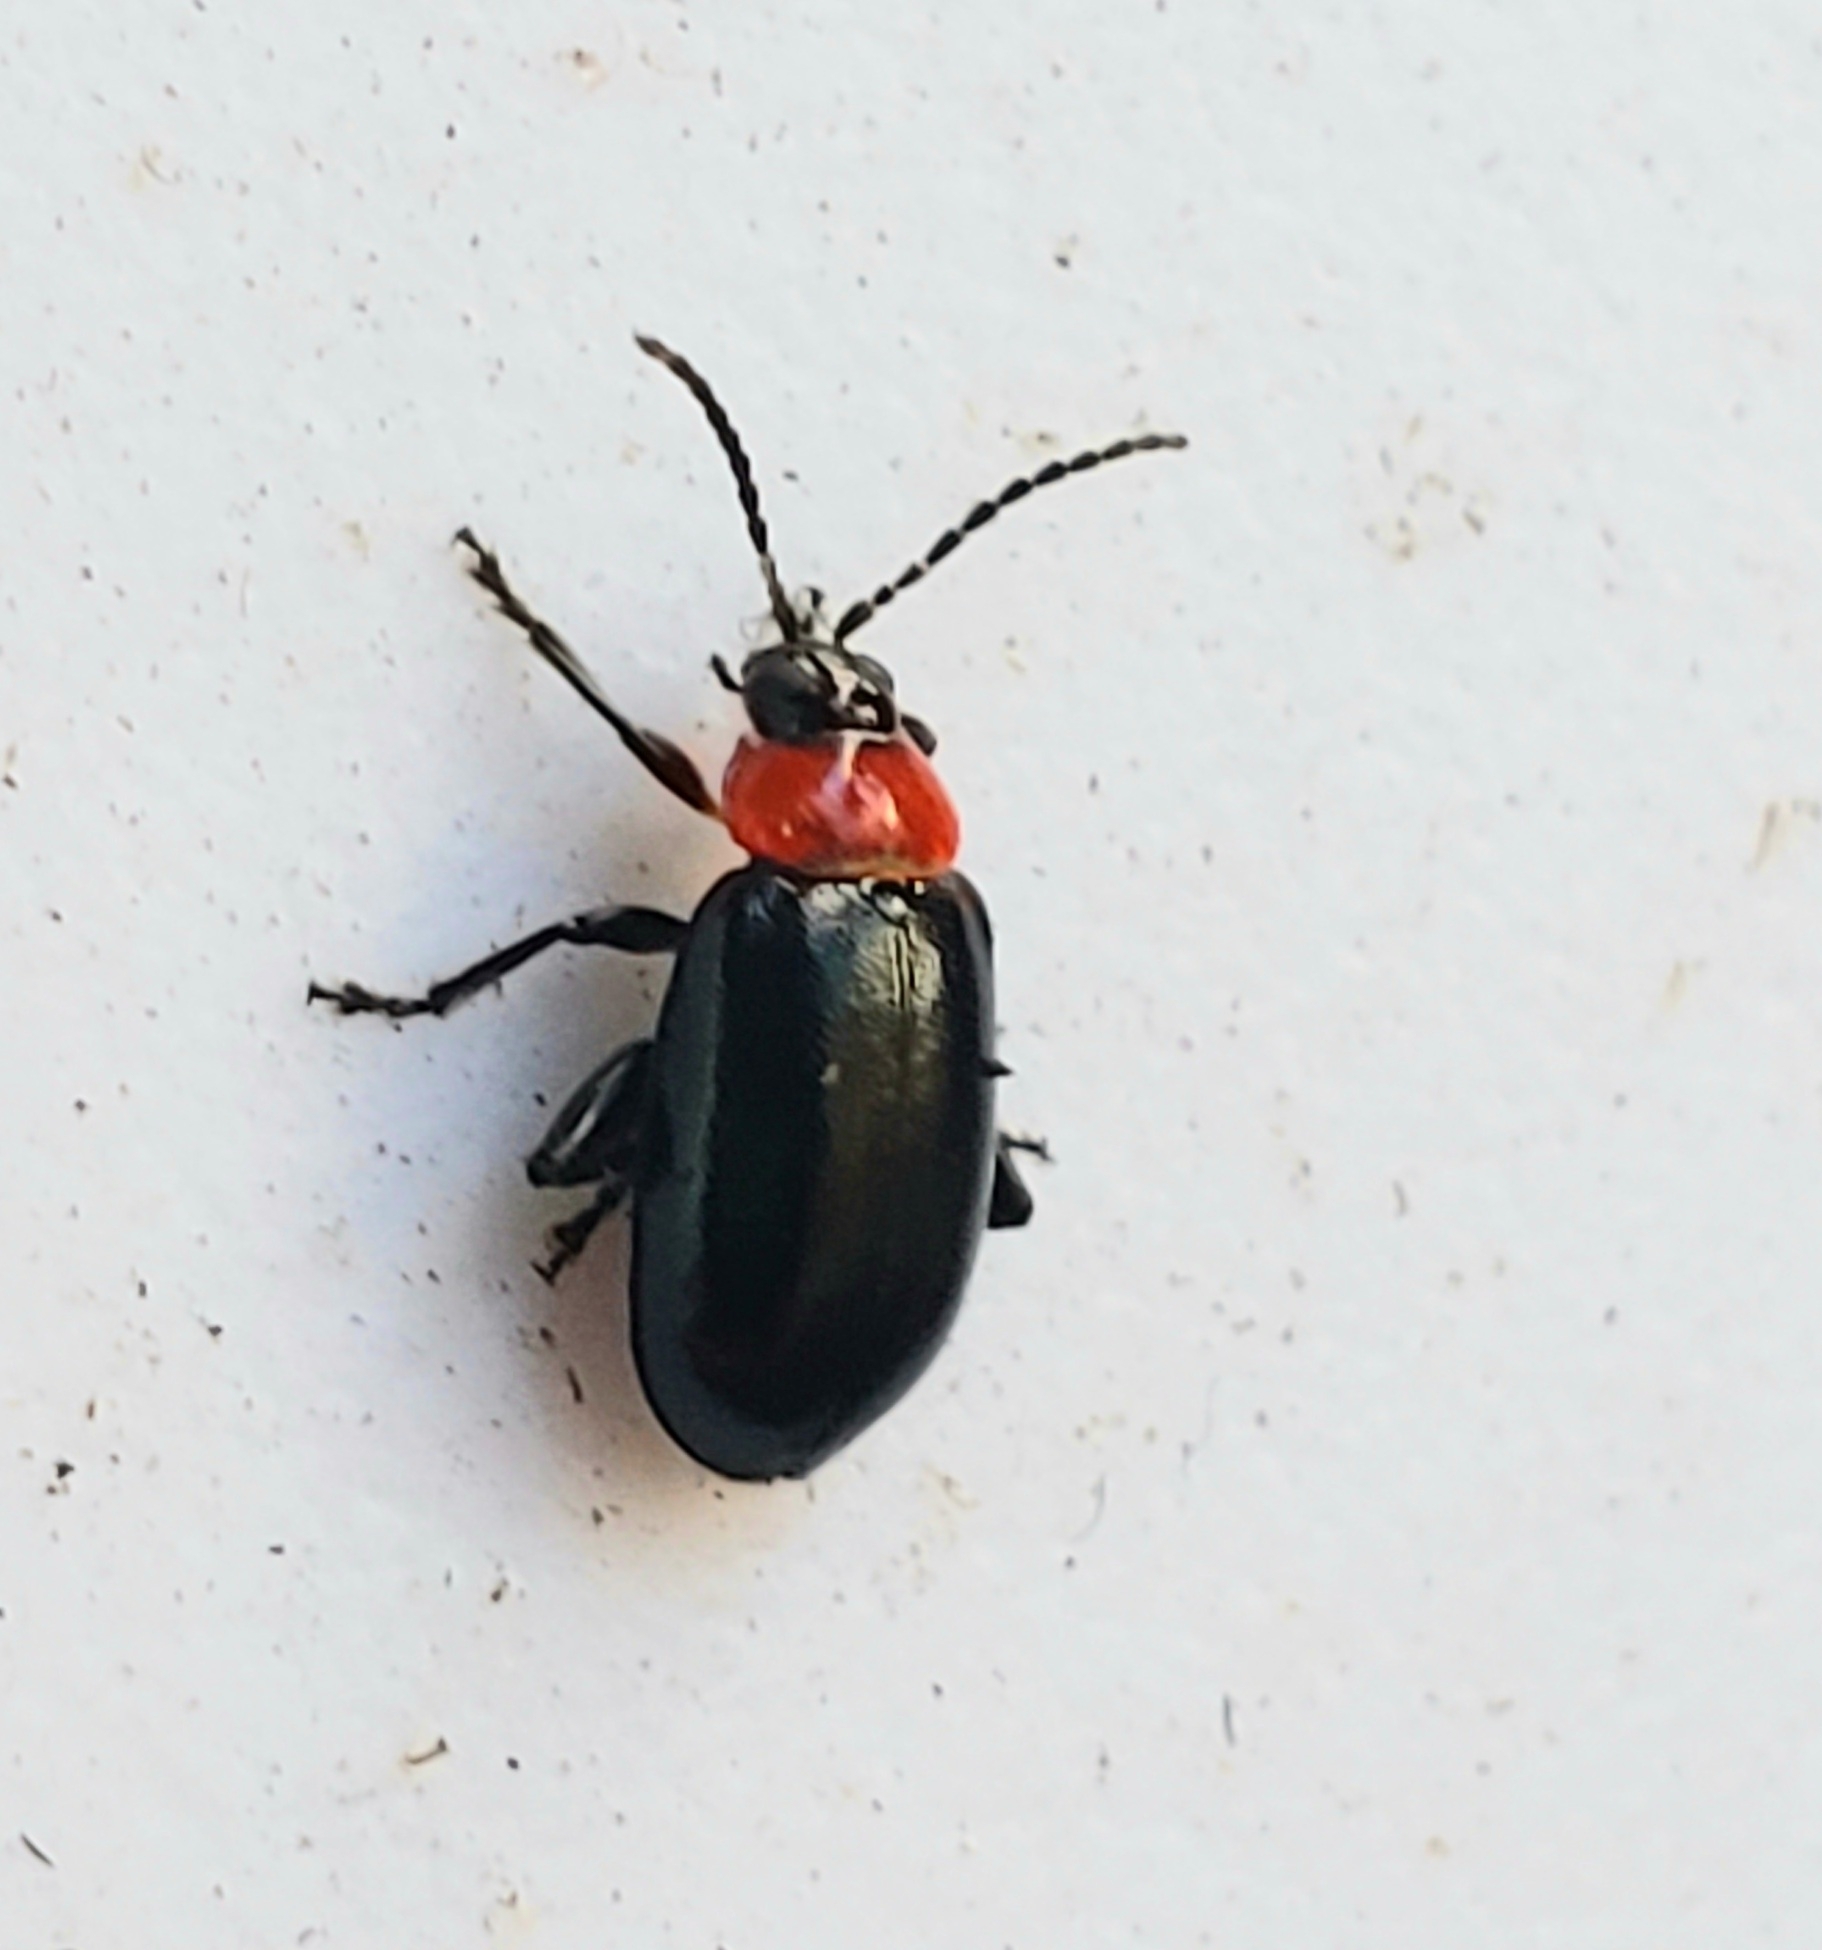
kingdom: Animalia
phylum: Arthropoda
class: Insecta
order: Coleoptera
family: Chrysomelidae
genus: Disonycha
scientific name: Disonycha xanthomelas
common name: Spinach flea beetle
